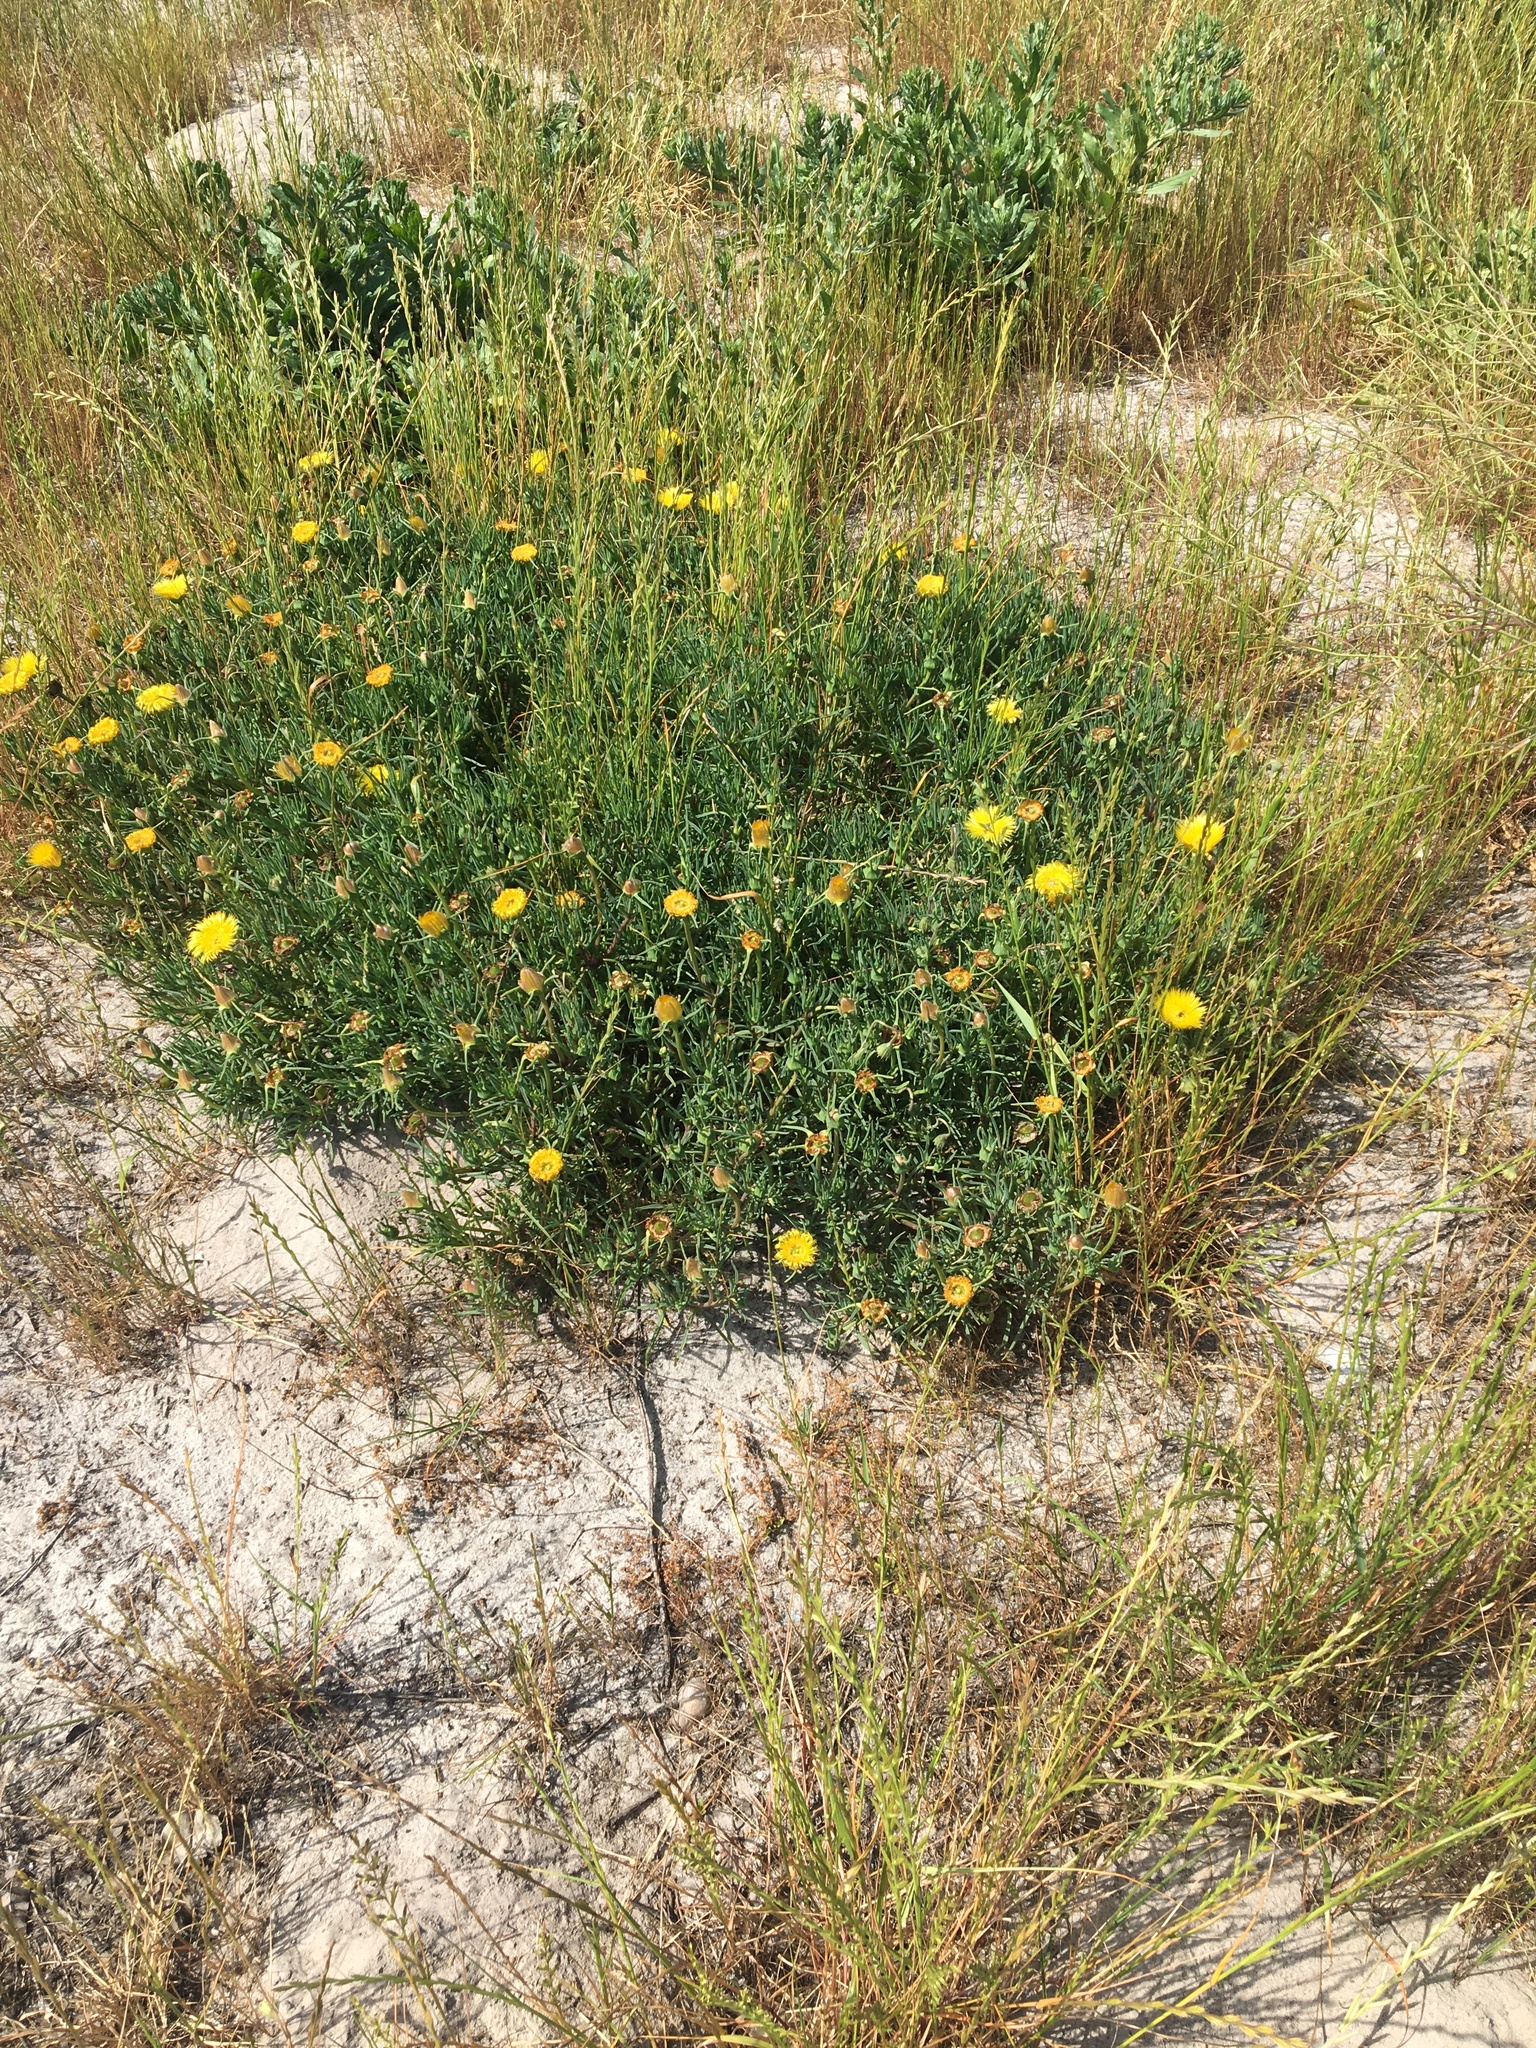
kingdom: Plantae
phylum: Tracheophyta
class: Magnoliopsida
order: Caryophyllales
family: Aizoaceae
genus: Conicosia
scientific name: Conicosia pugioniformis
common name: Narrow-leaved iceplant
